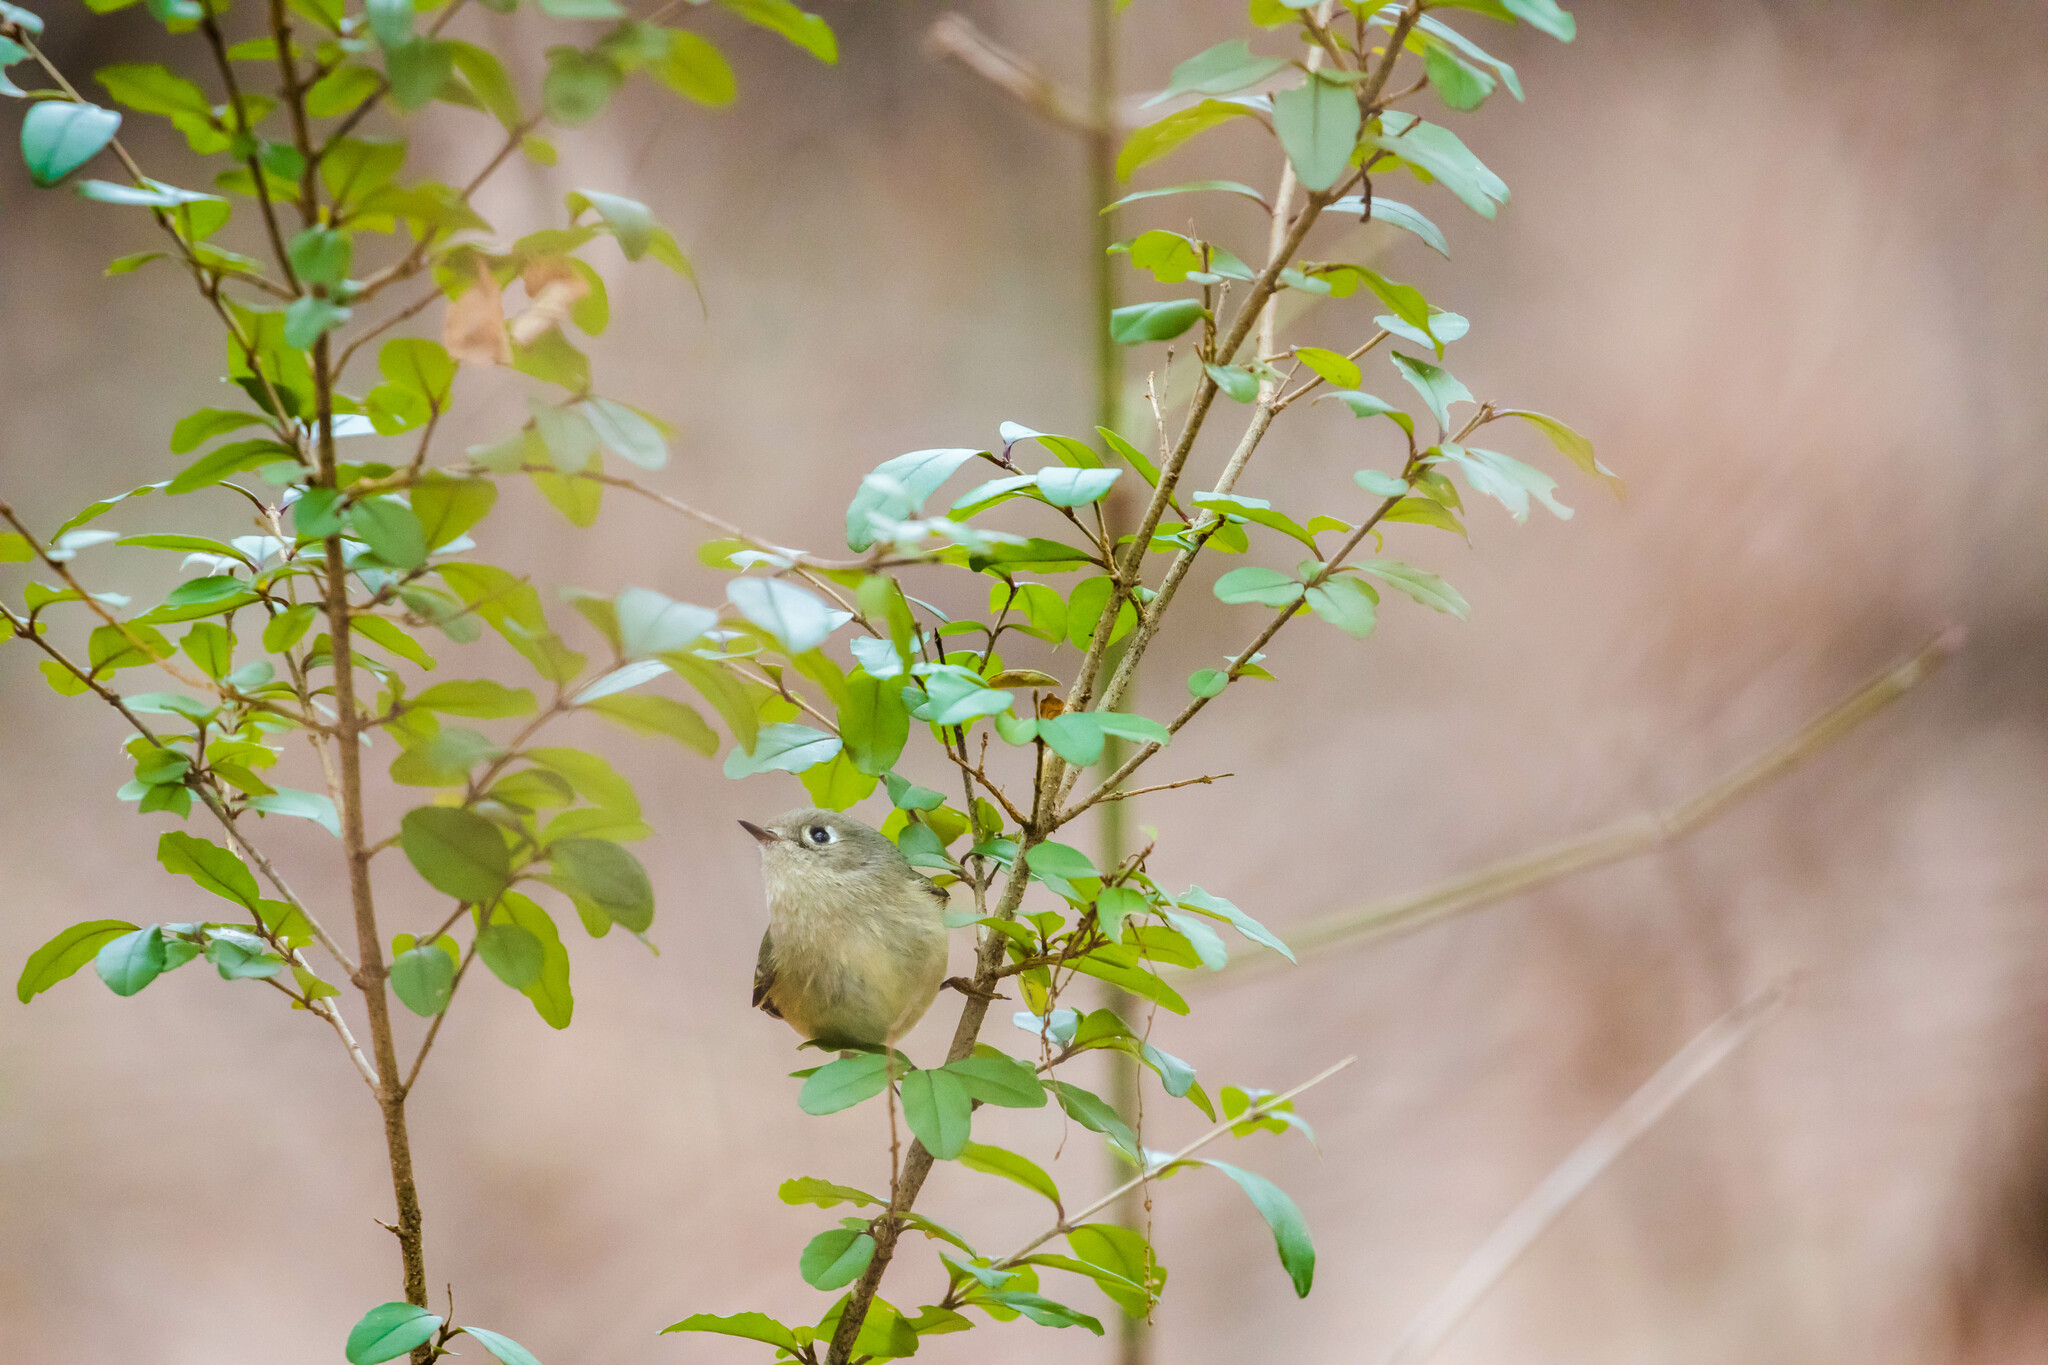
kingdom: Animalia
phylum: Chordata
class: Aves
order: Passeriformes
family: Regulidae
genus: Regulus
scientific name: Regulus calendula
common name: Ruby-crowned kinglet
